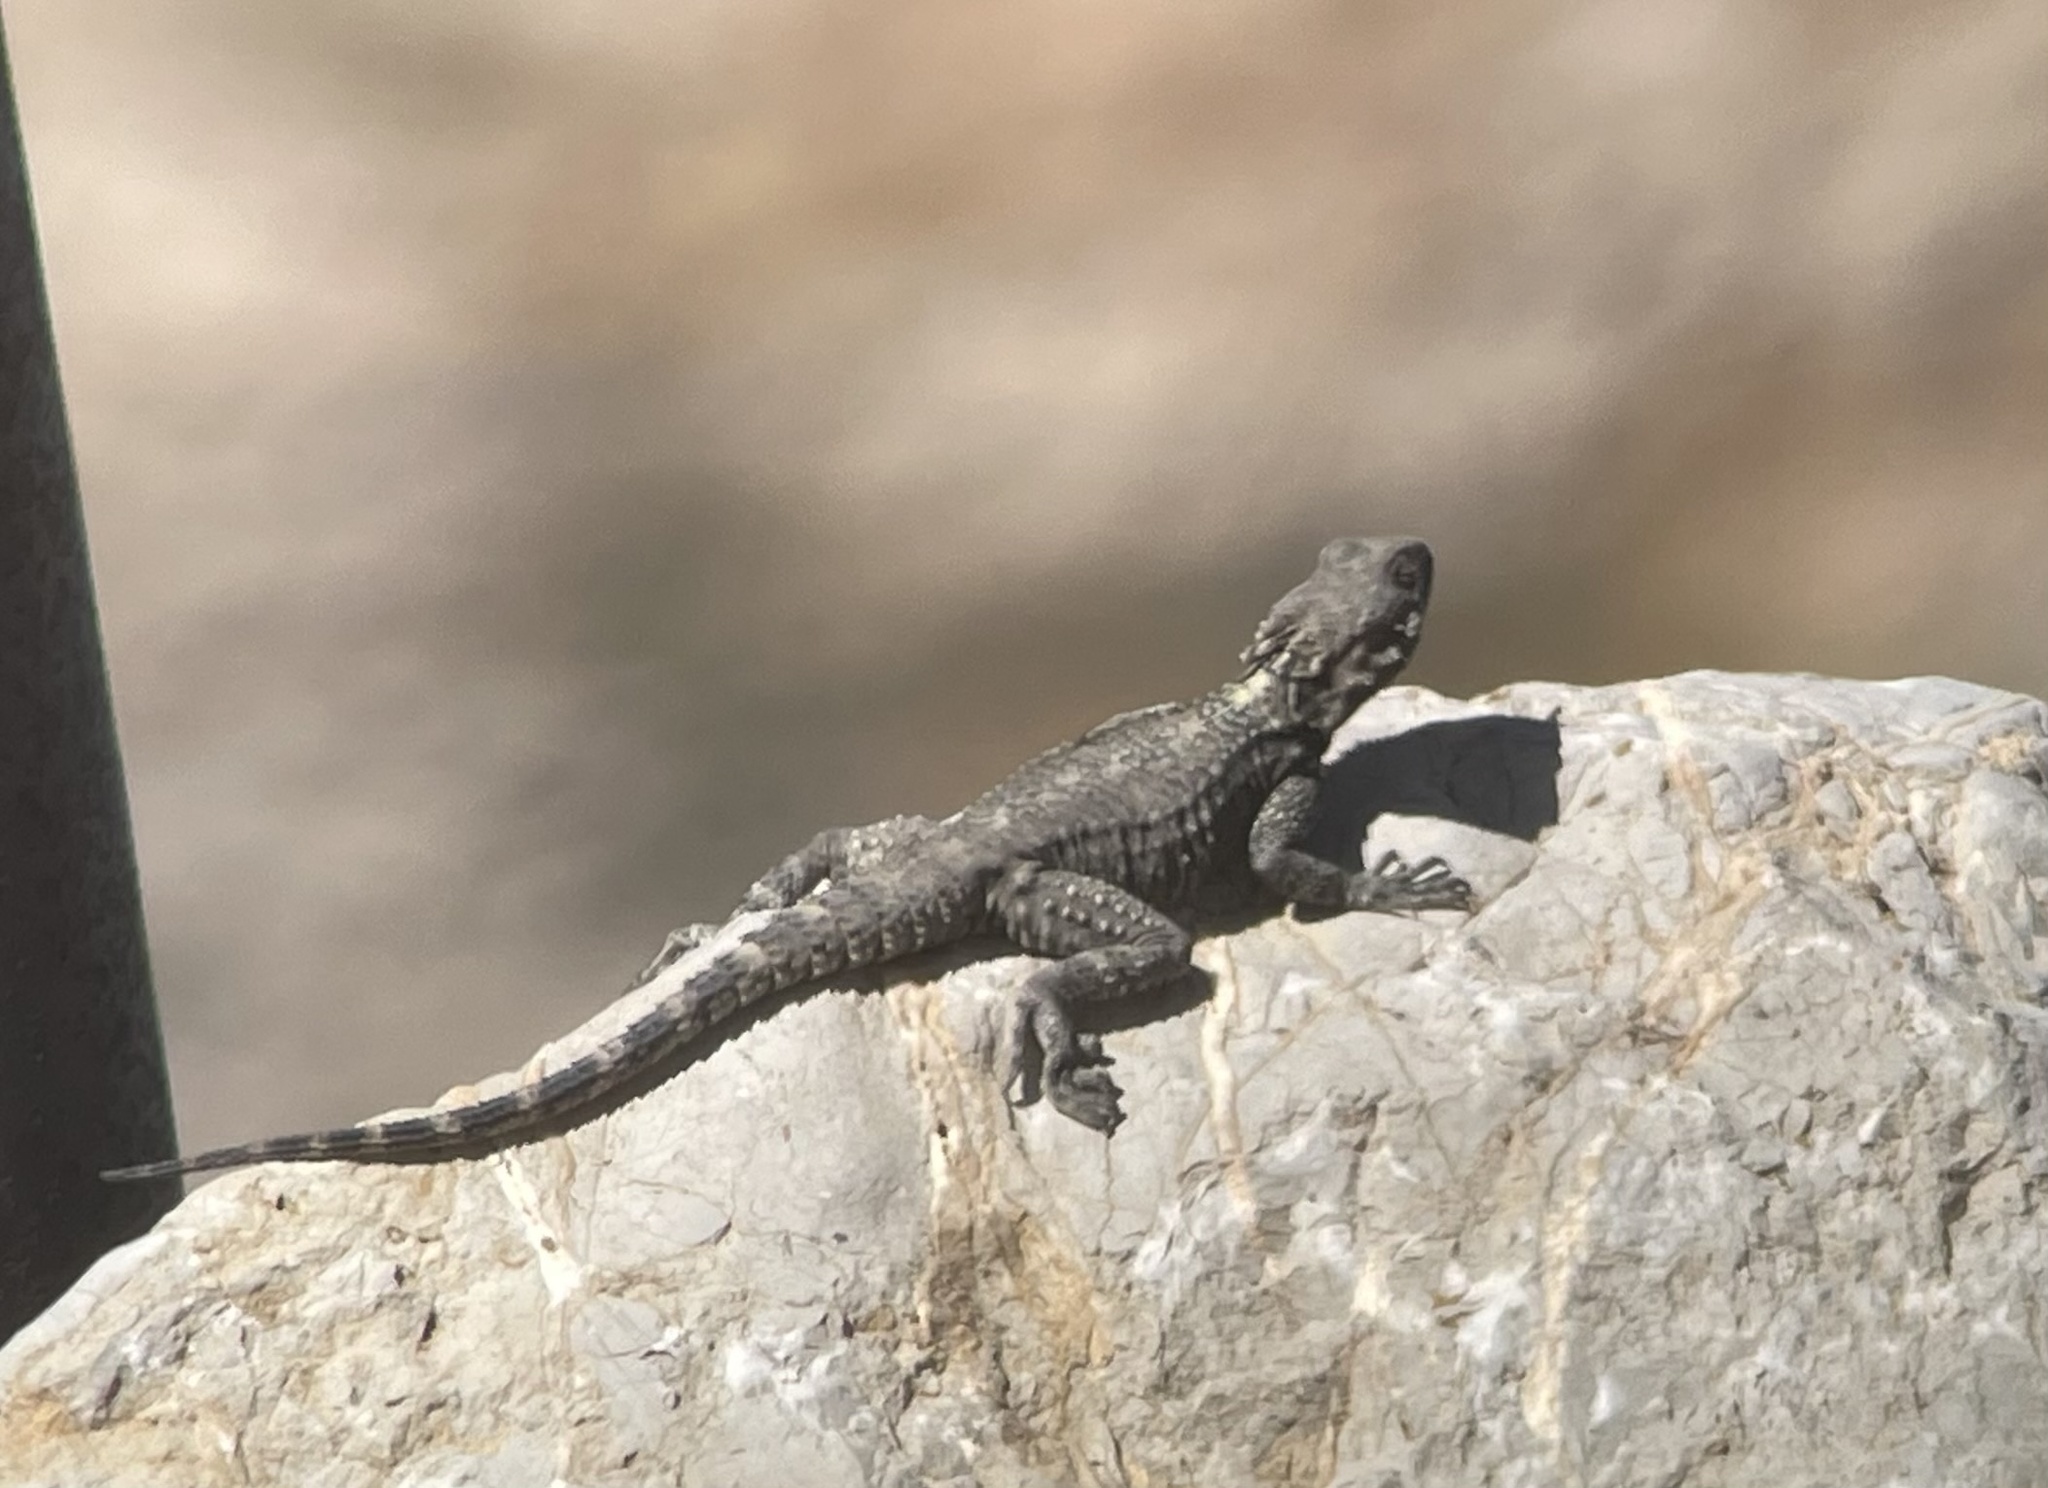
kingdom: Animalia
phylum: Chordata
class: Squamata
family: Agamidae
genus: Laudakia
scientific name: Laudakia vulgaris
